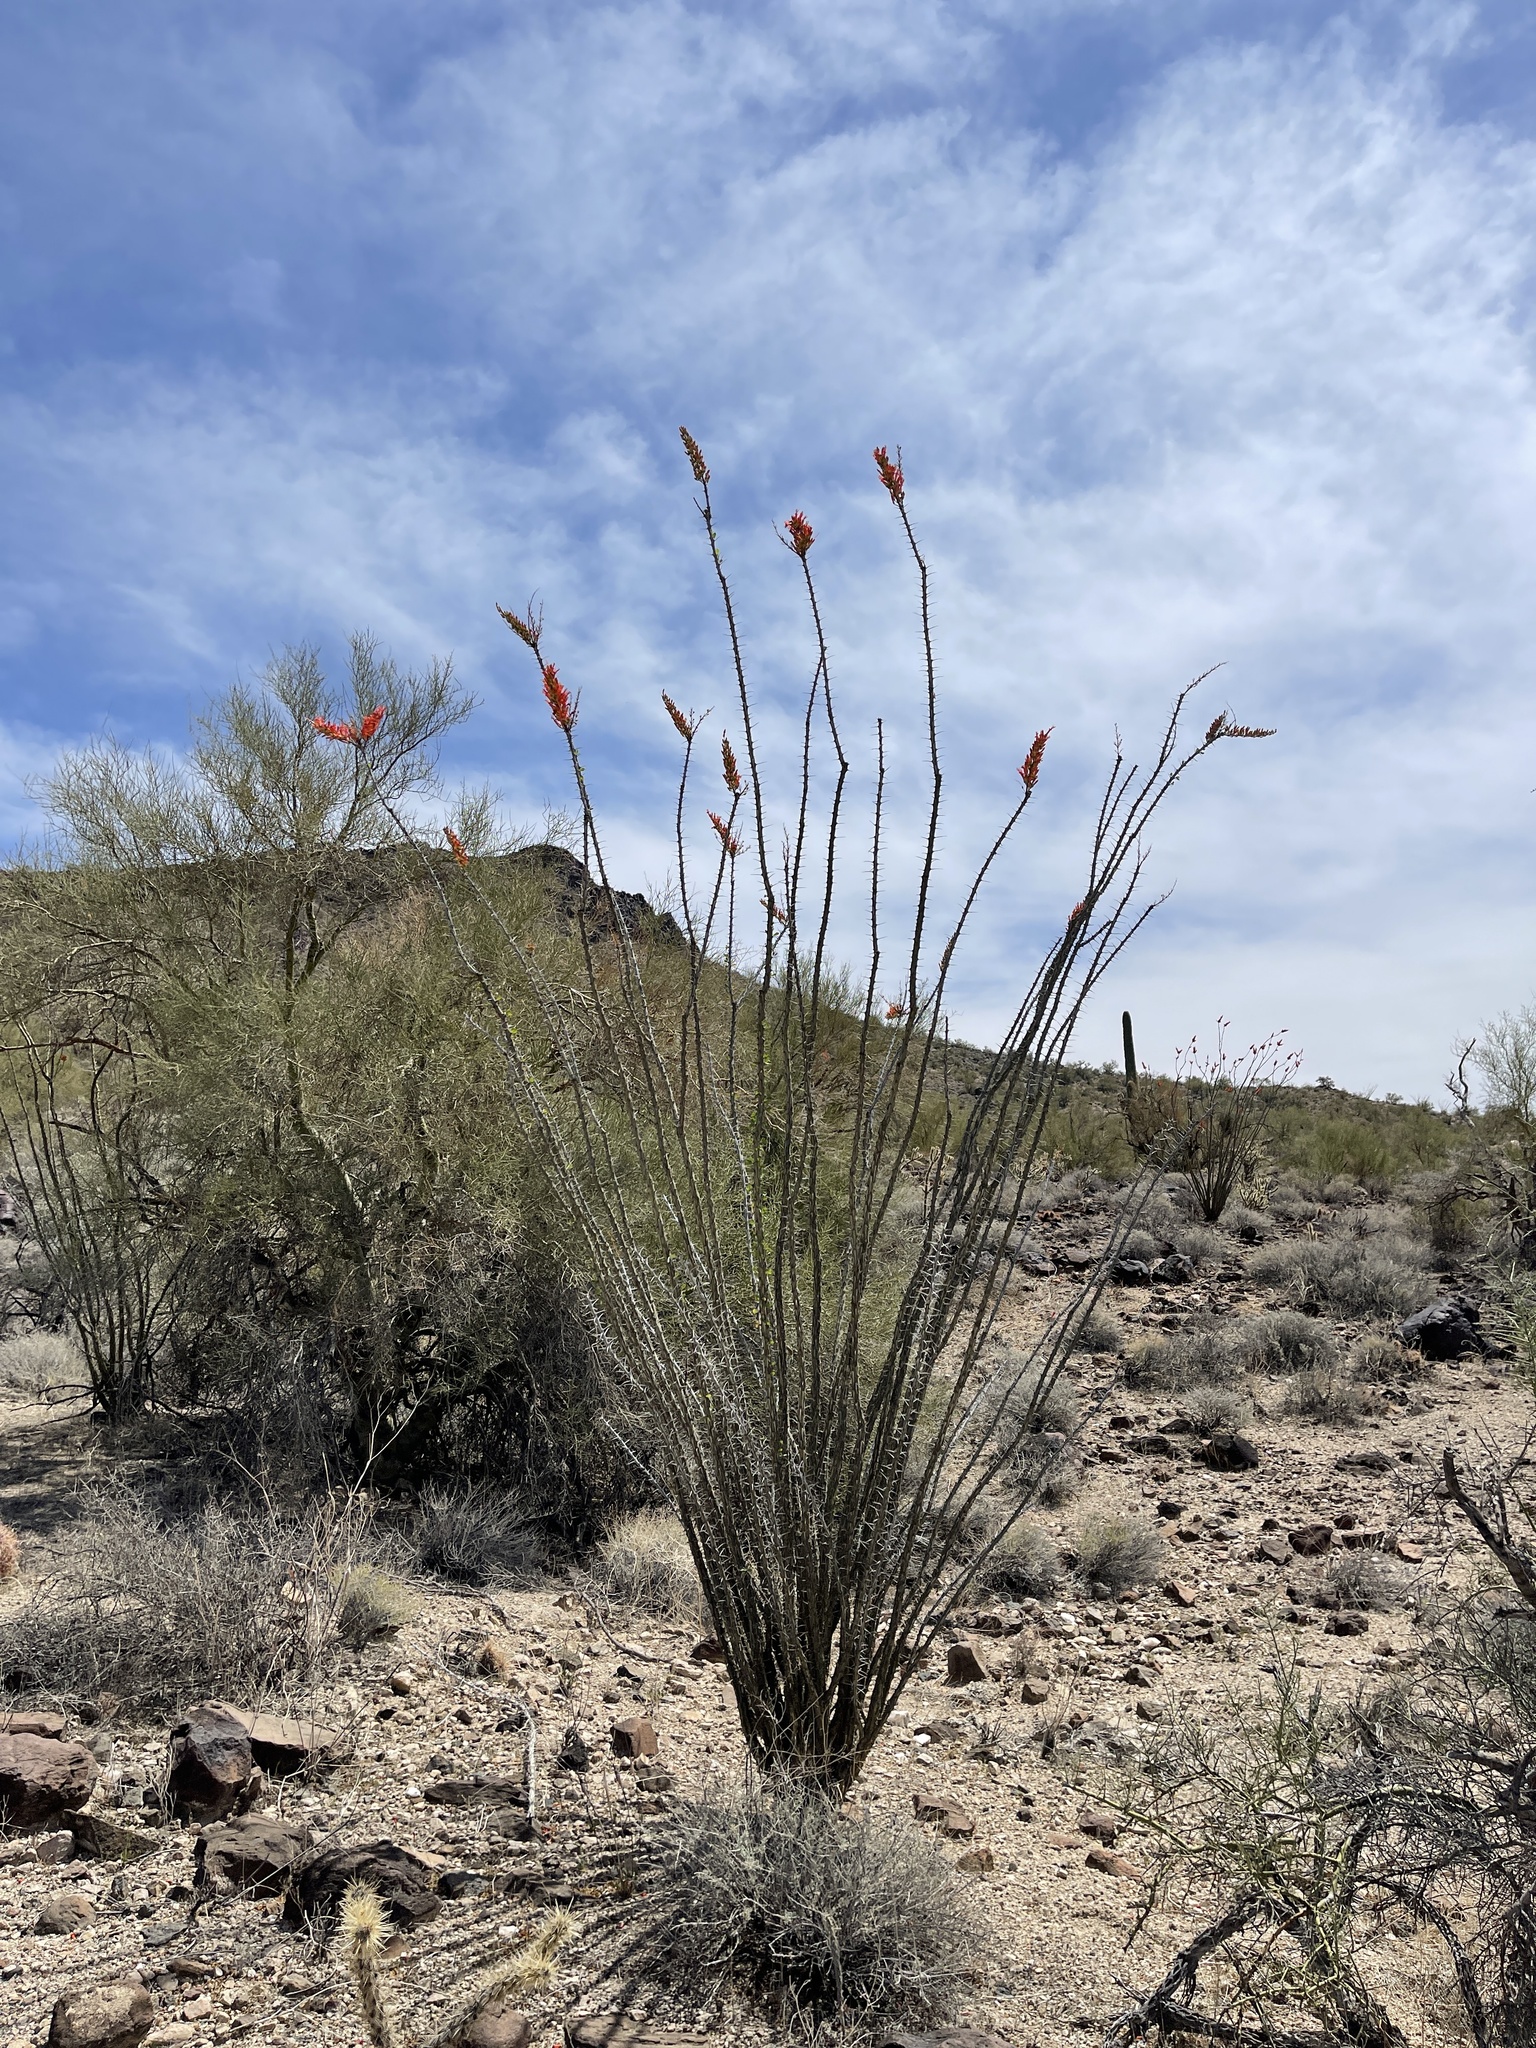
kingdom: Plantae
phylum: Tracheophyta
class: Magnoliopsida
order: Ericales
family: Fouquieriaceae
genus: Fouquieria
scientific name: Fouquieria splendens
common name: Vine-cactus
